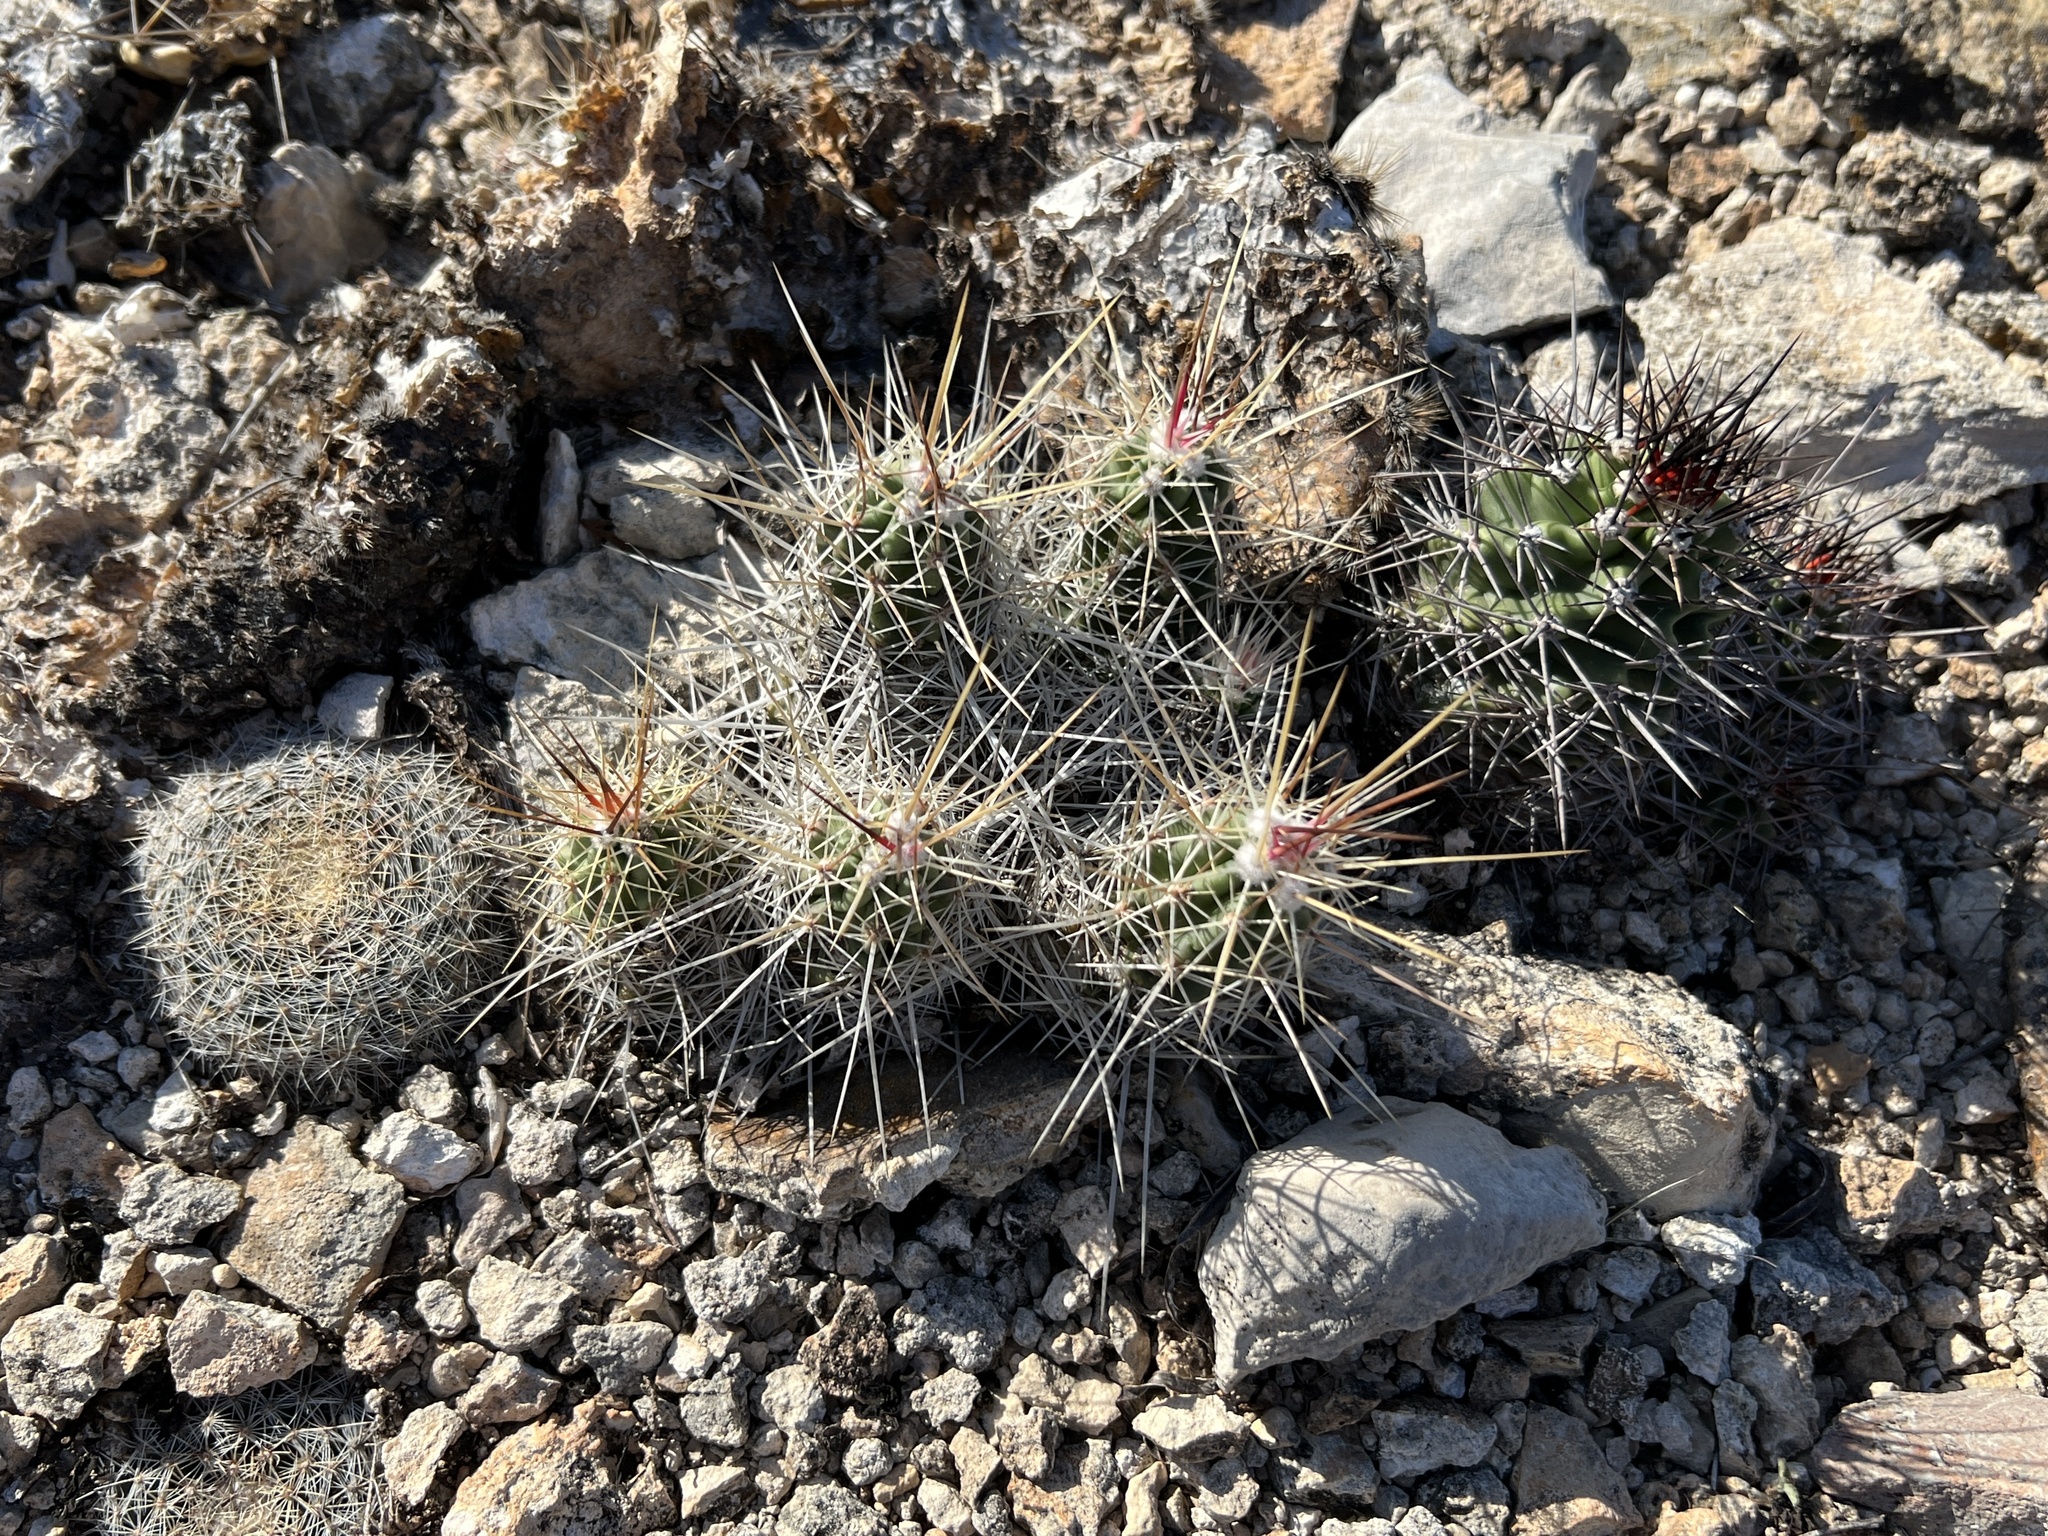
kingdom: Plantae
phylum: Tracheophyta
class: Magnoliopsida
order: Caryophyllales
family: Cactaceae
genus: Mammillaria
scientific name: Mammillaria heyderi
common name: Little nipple cactus
